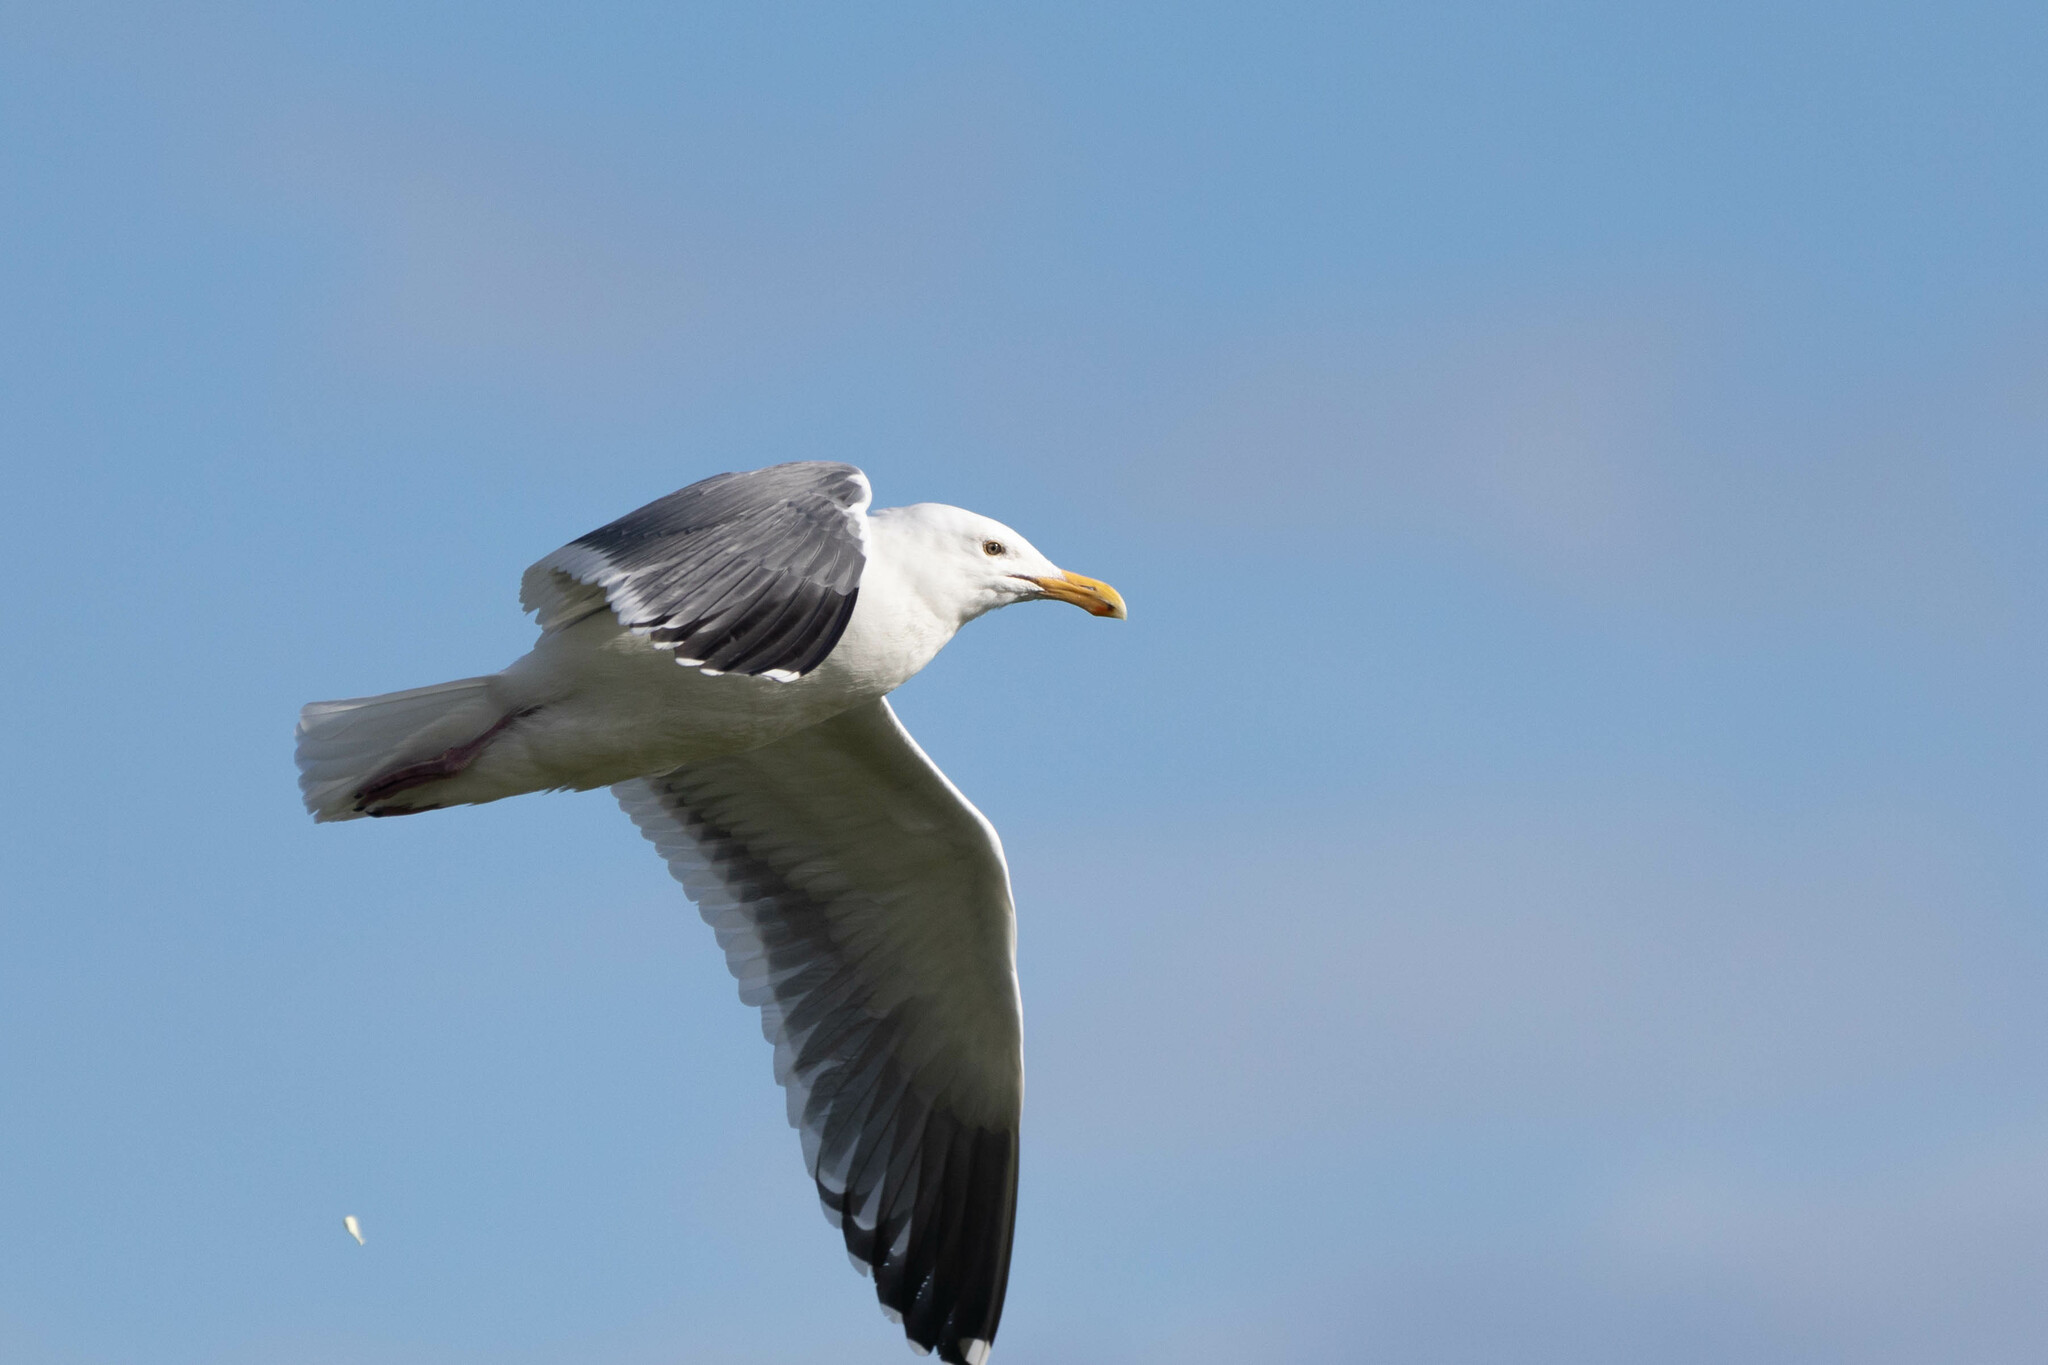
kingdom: Animalia
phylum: Chordata
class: Aves
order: Charadriiformes
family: Laridae
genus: Larus
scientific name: Larus occidentalis
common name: Western gull
